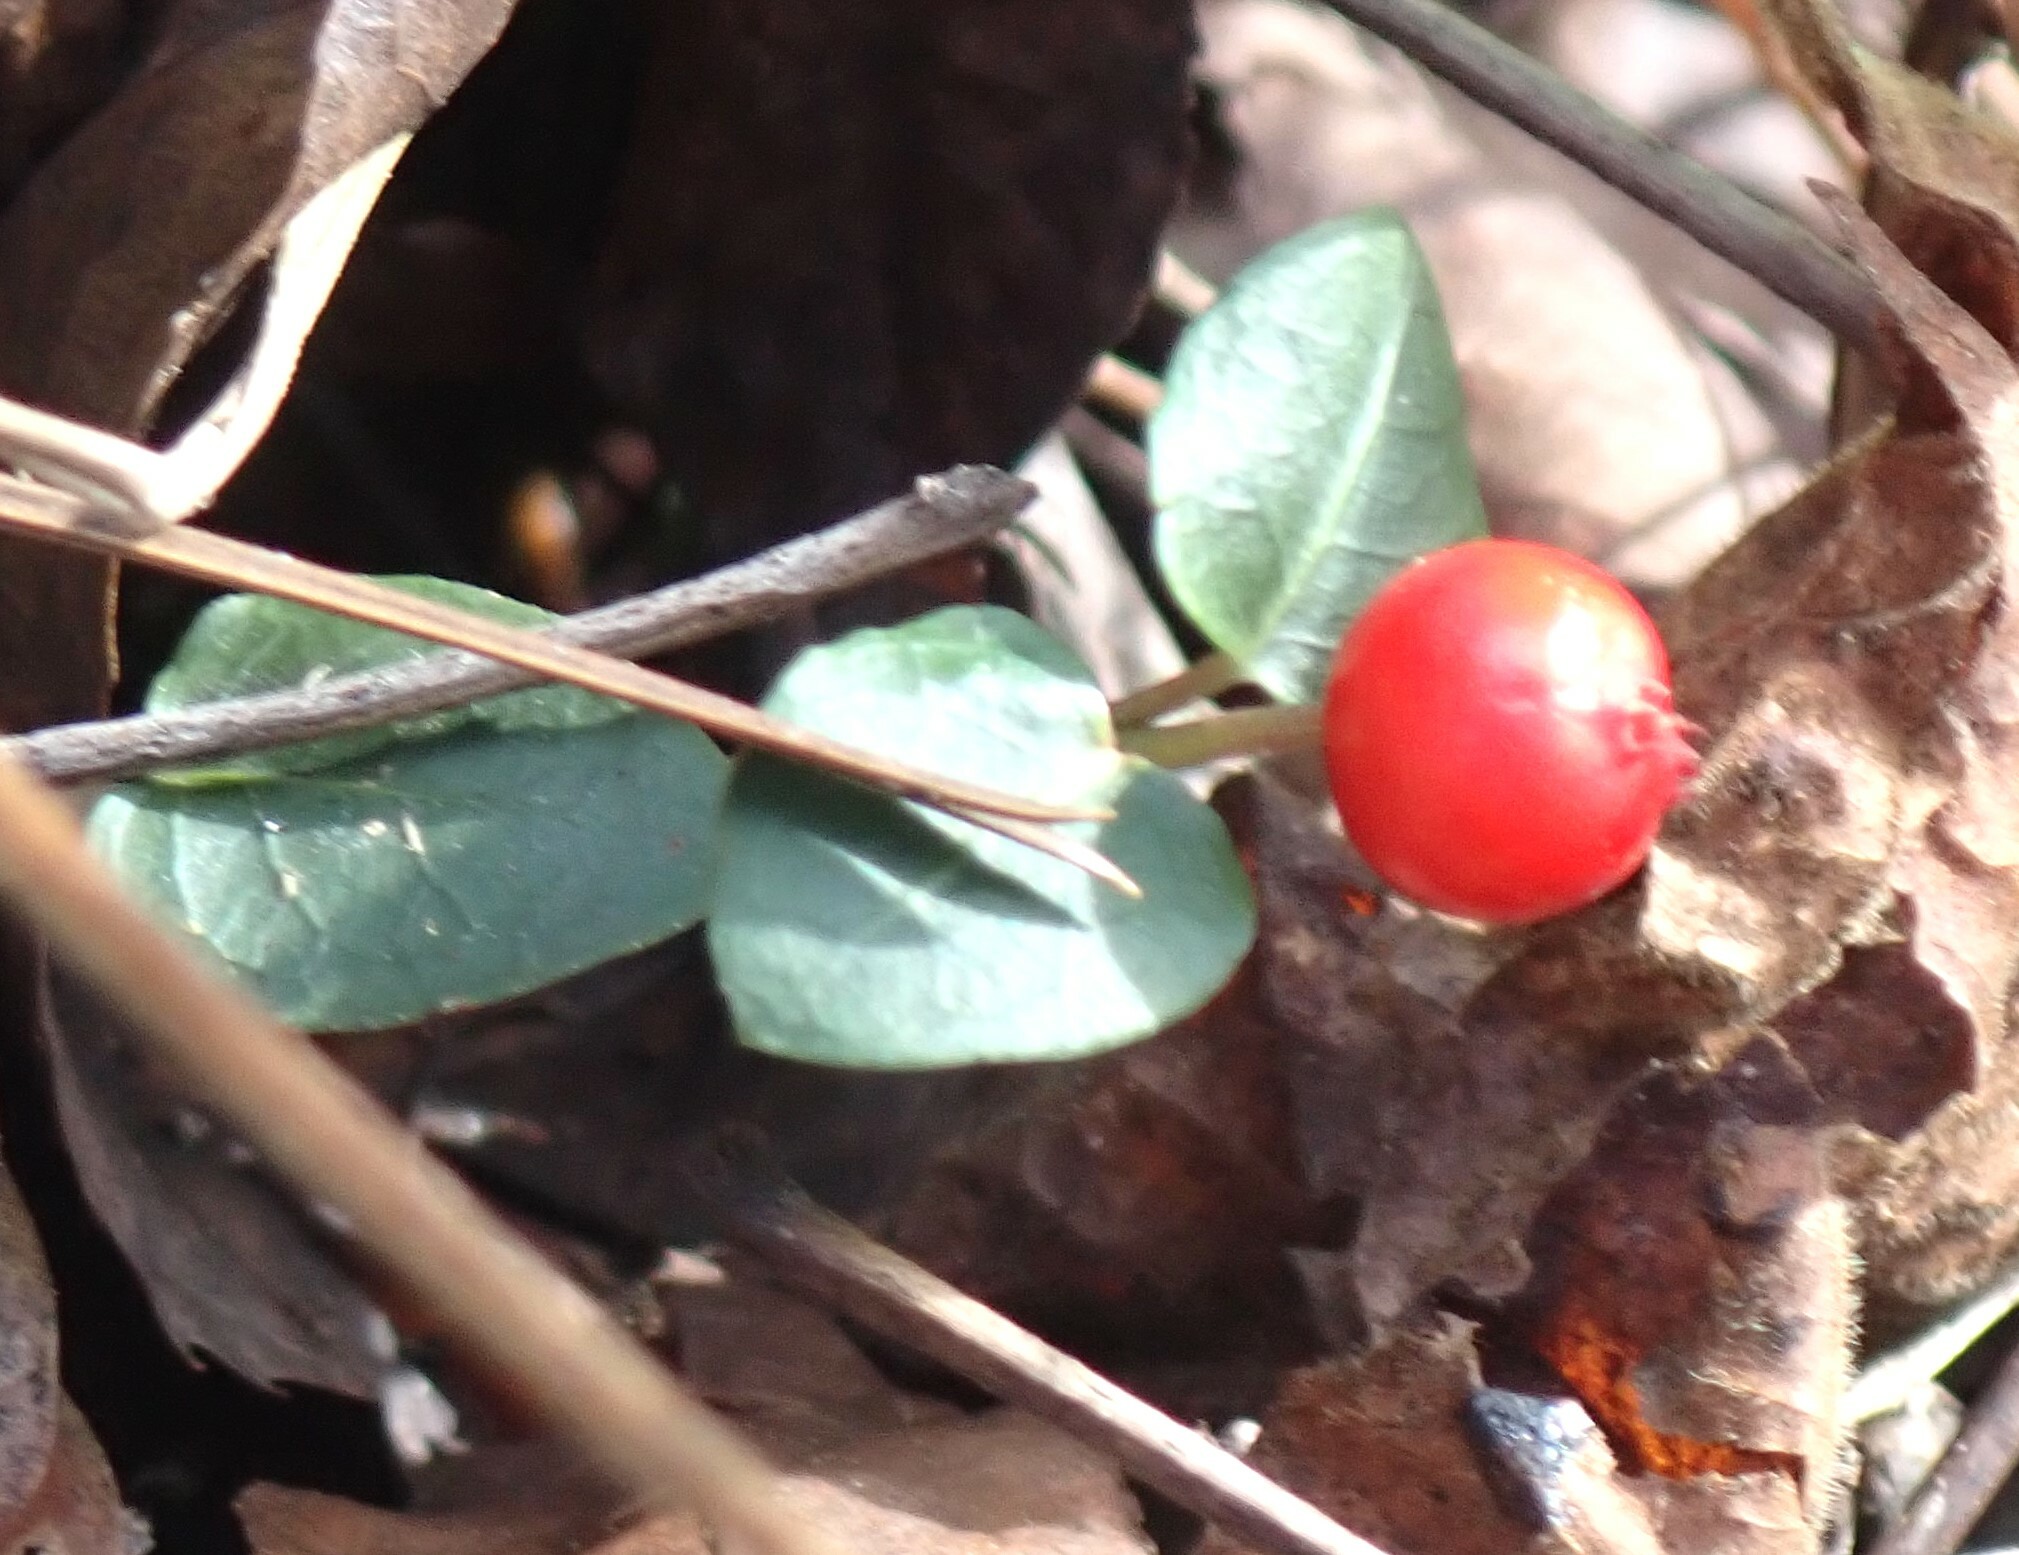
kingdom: Plantae
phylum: Tracheophyta
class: Magnoliopsida
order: Gentianales
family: Rubiaceae
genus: Mitchella
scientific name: Mitchella repens
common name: Partridge-berry
